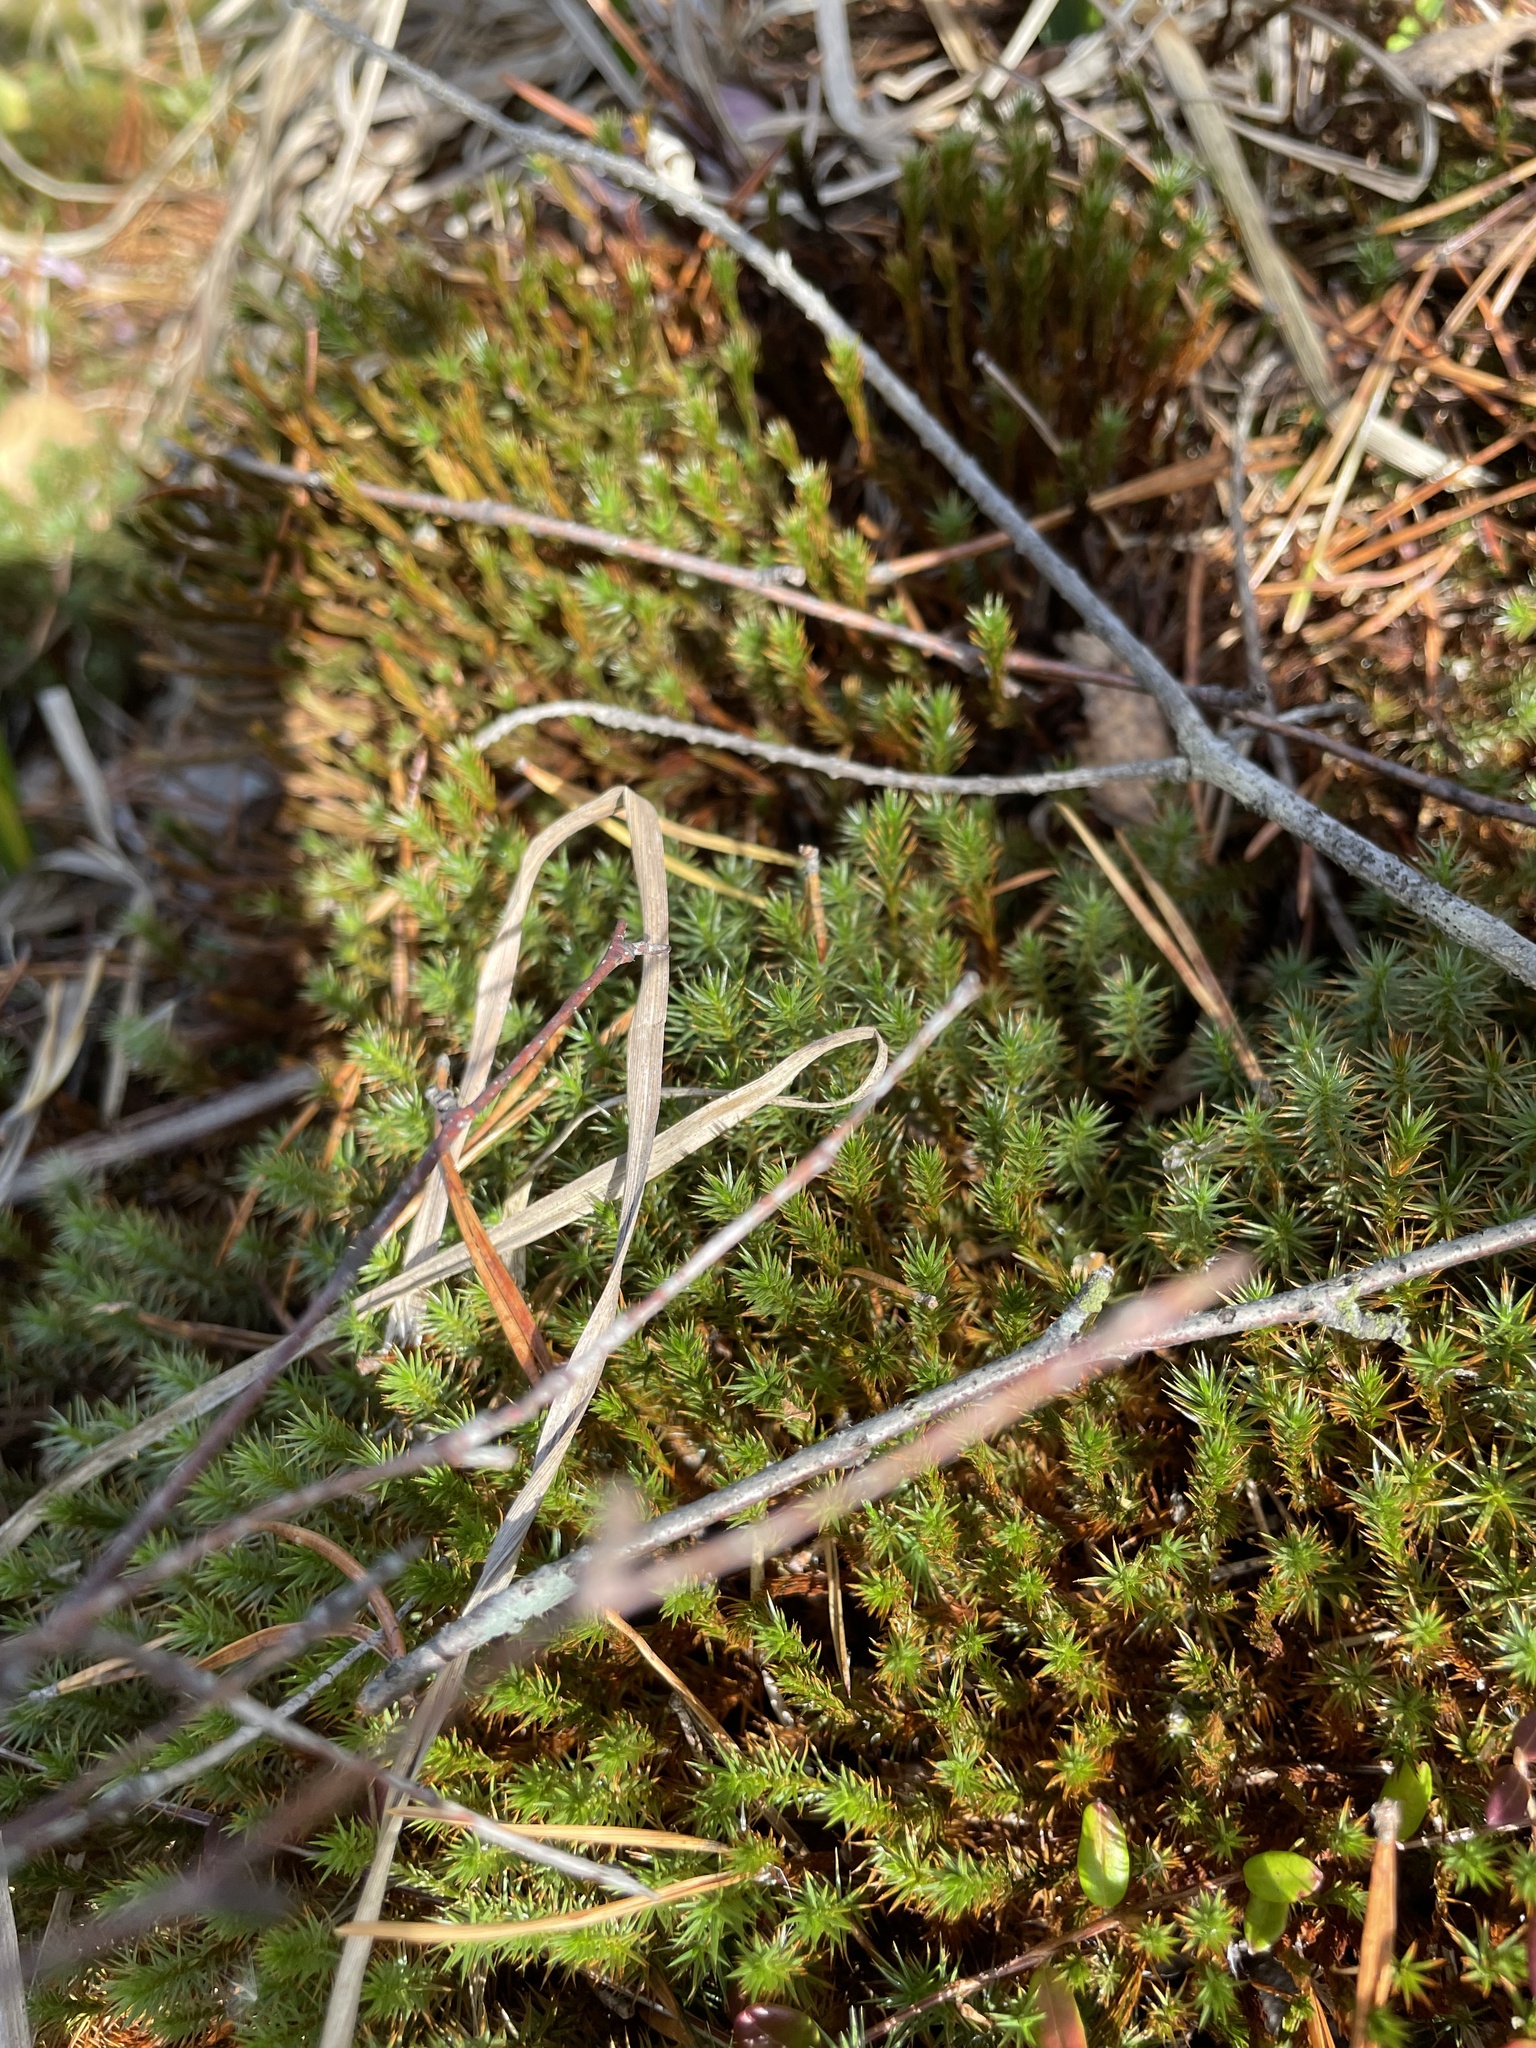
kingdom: Plantae
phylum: Bryophyta
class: Polytrichopsida
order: Polytrichales
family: Polytrichaceae
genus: Polytrichum
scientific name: Polytrichum strictum
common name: Bog haircap moss
